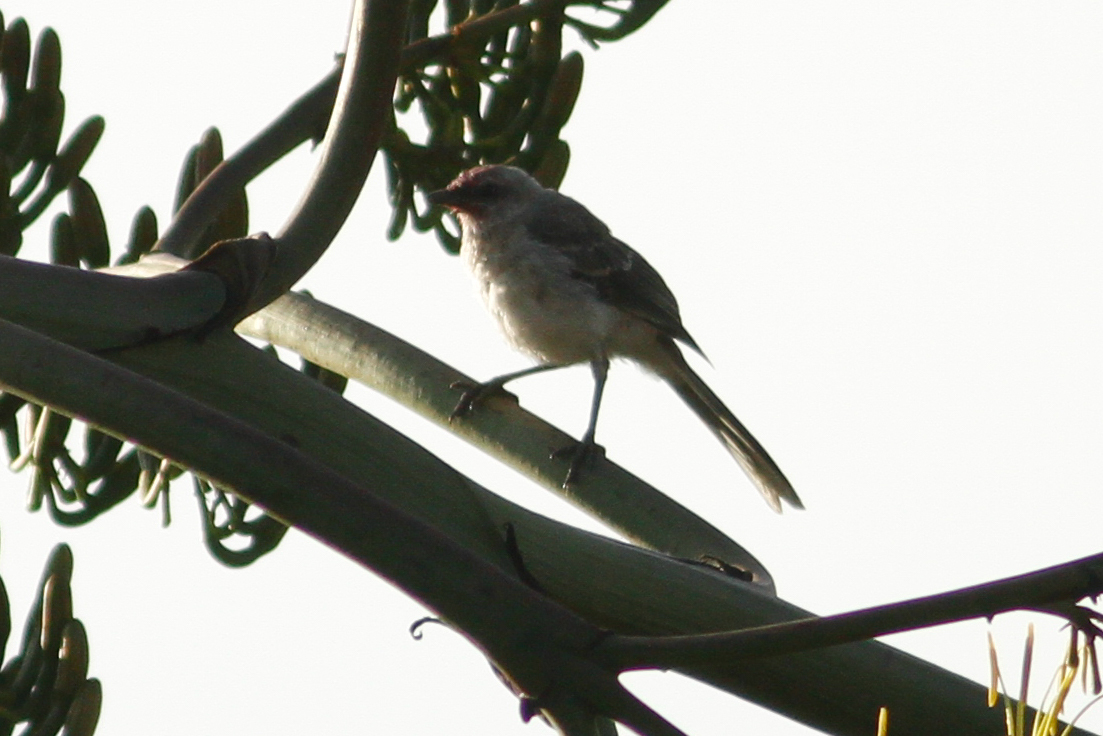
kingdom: Animalia
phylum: Chordata
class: Aves
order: Passeriformes
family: Mimidae
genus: Mimus
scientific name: Mimus gilvus
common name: Tropical mockingbird
